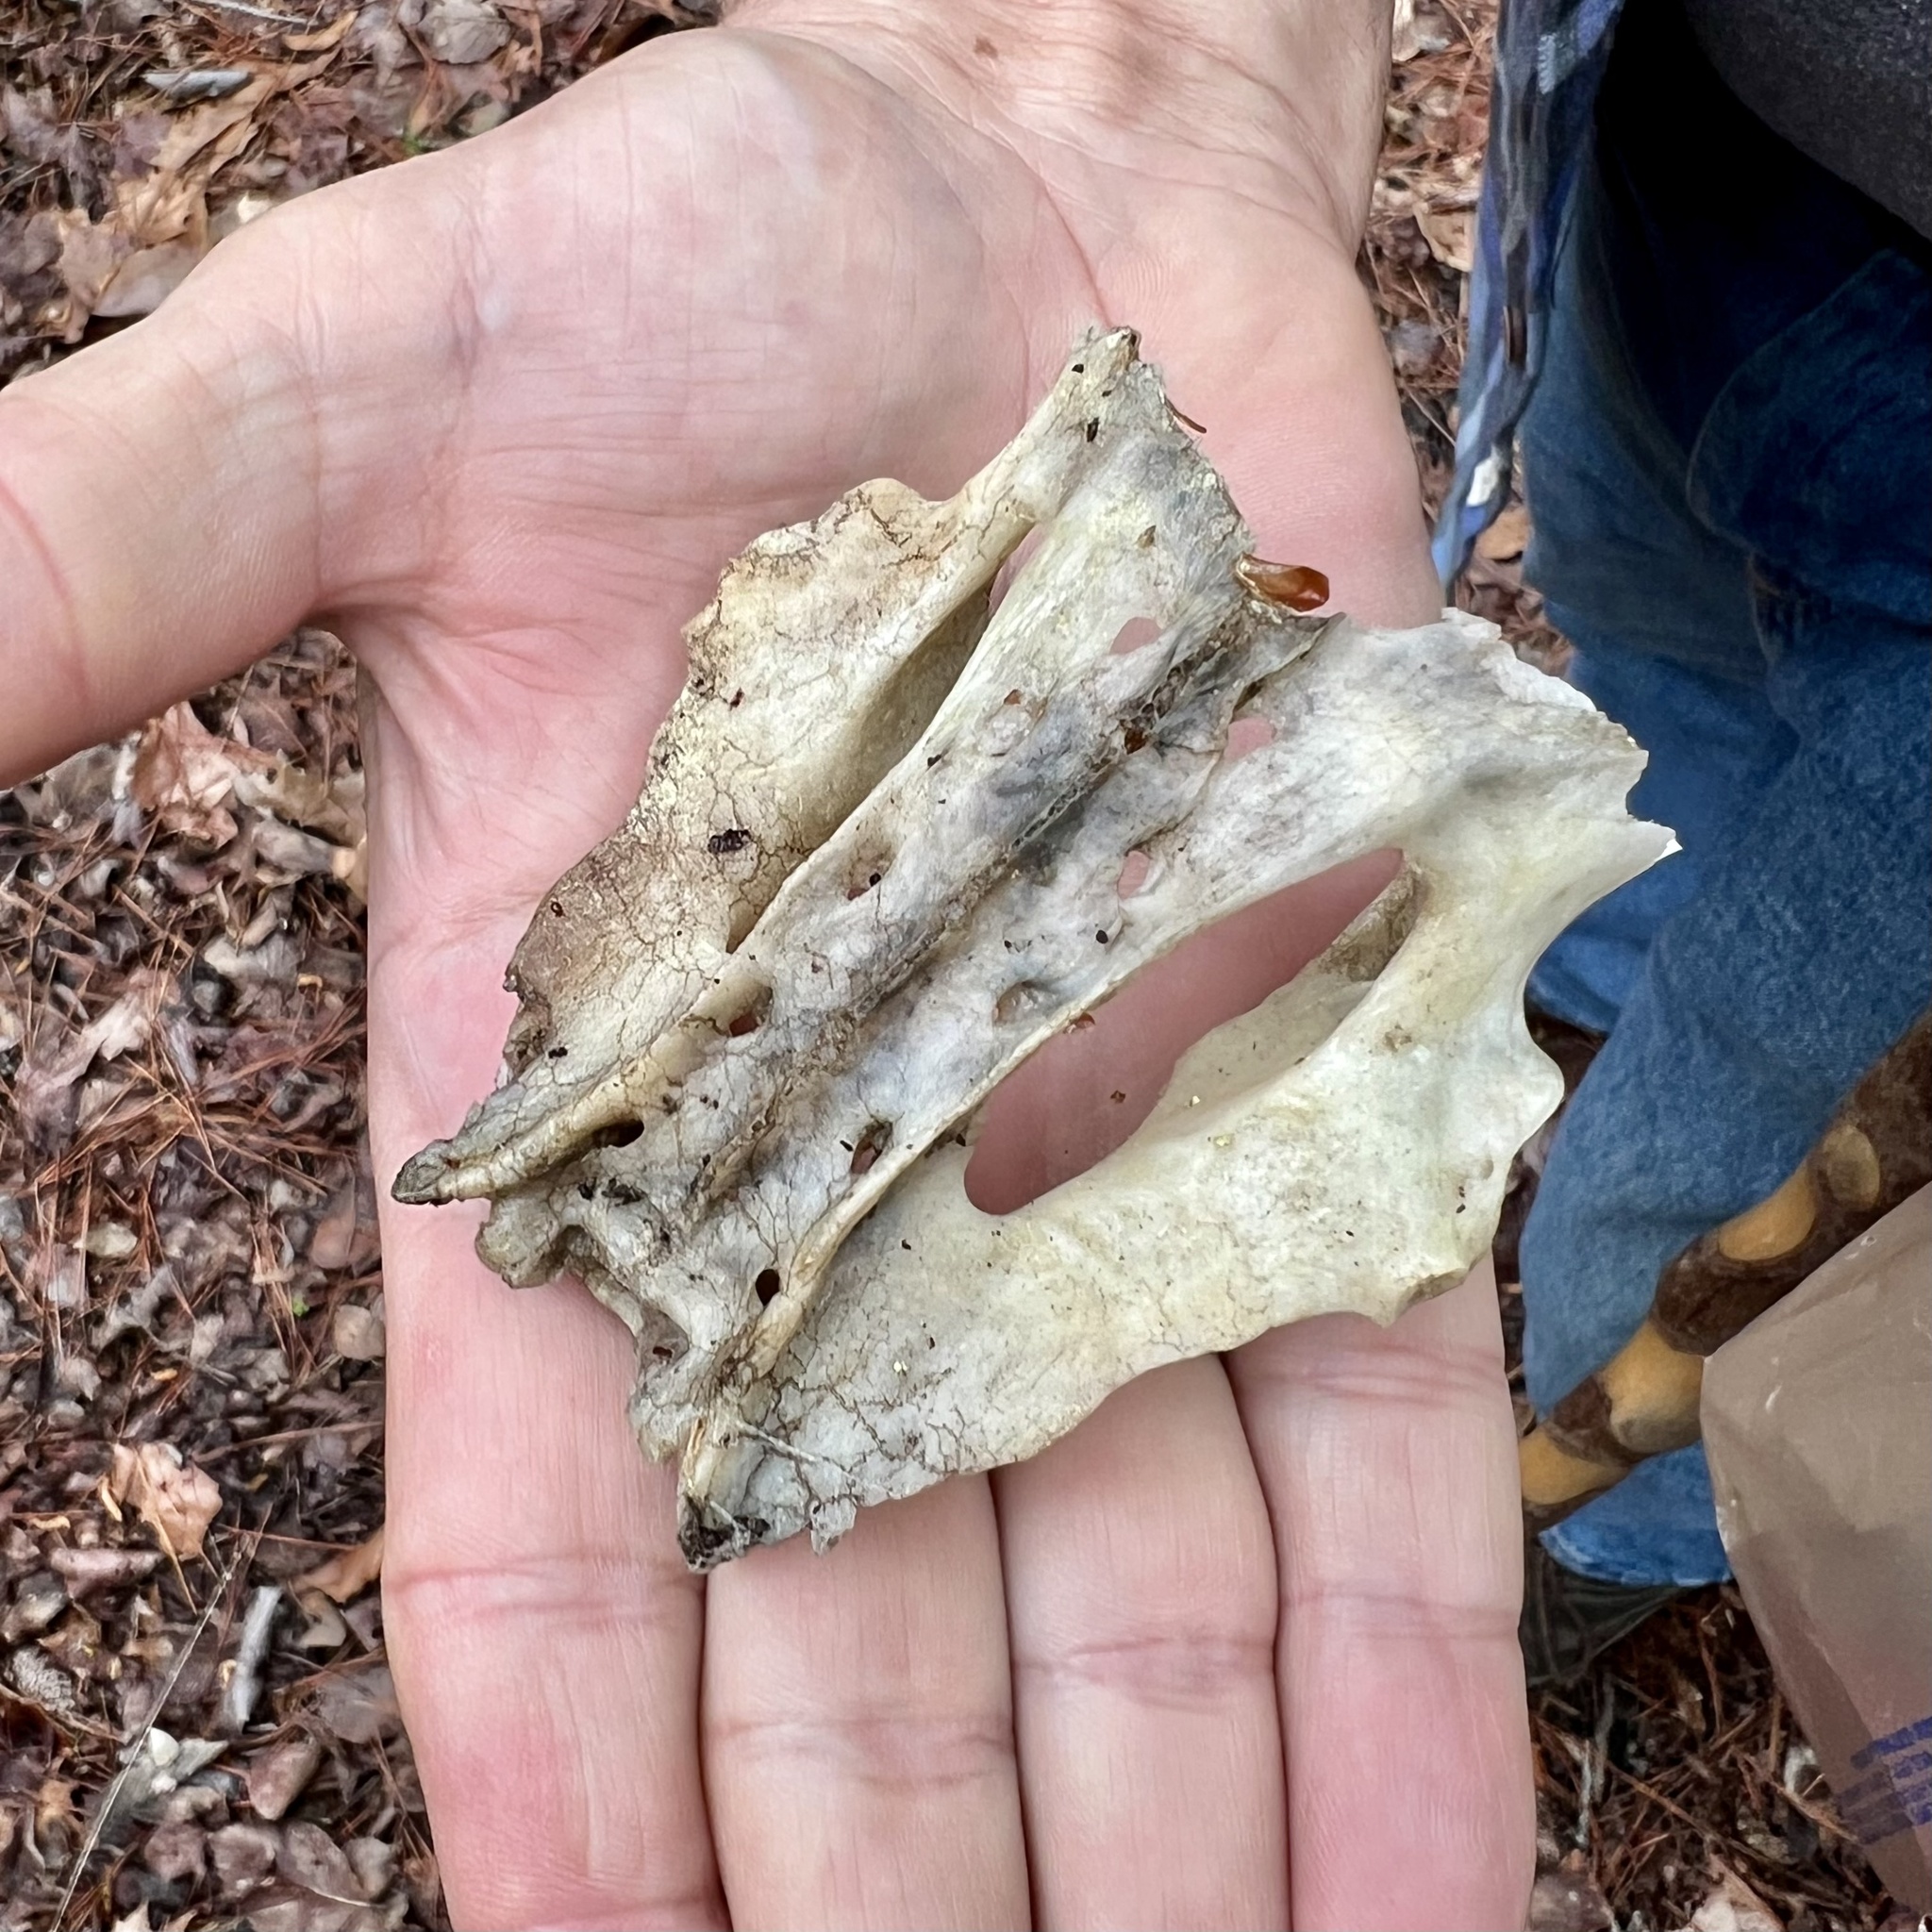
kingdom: Animalia
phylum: Chordata
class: Mammalia
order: Cingulata
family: Dasypodidae
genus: Dasypus
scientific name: Dasypus novemcinctus
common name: Nine-banded armadillo
